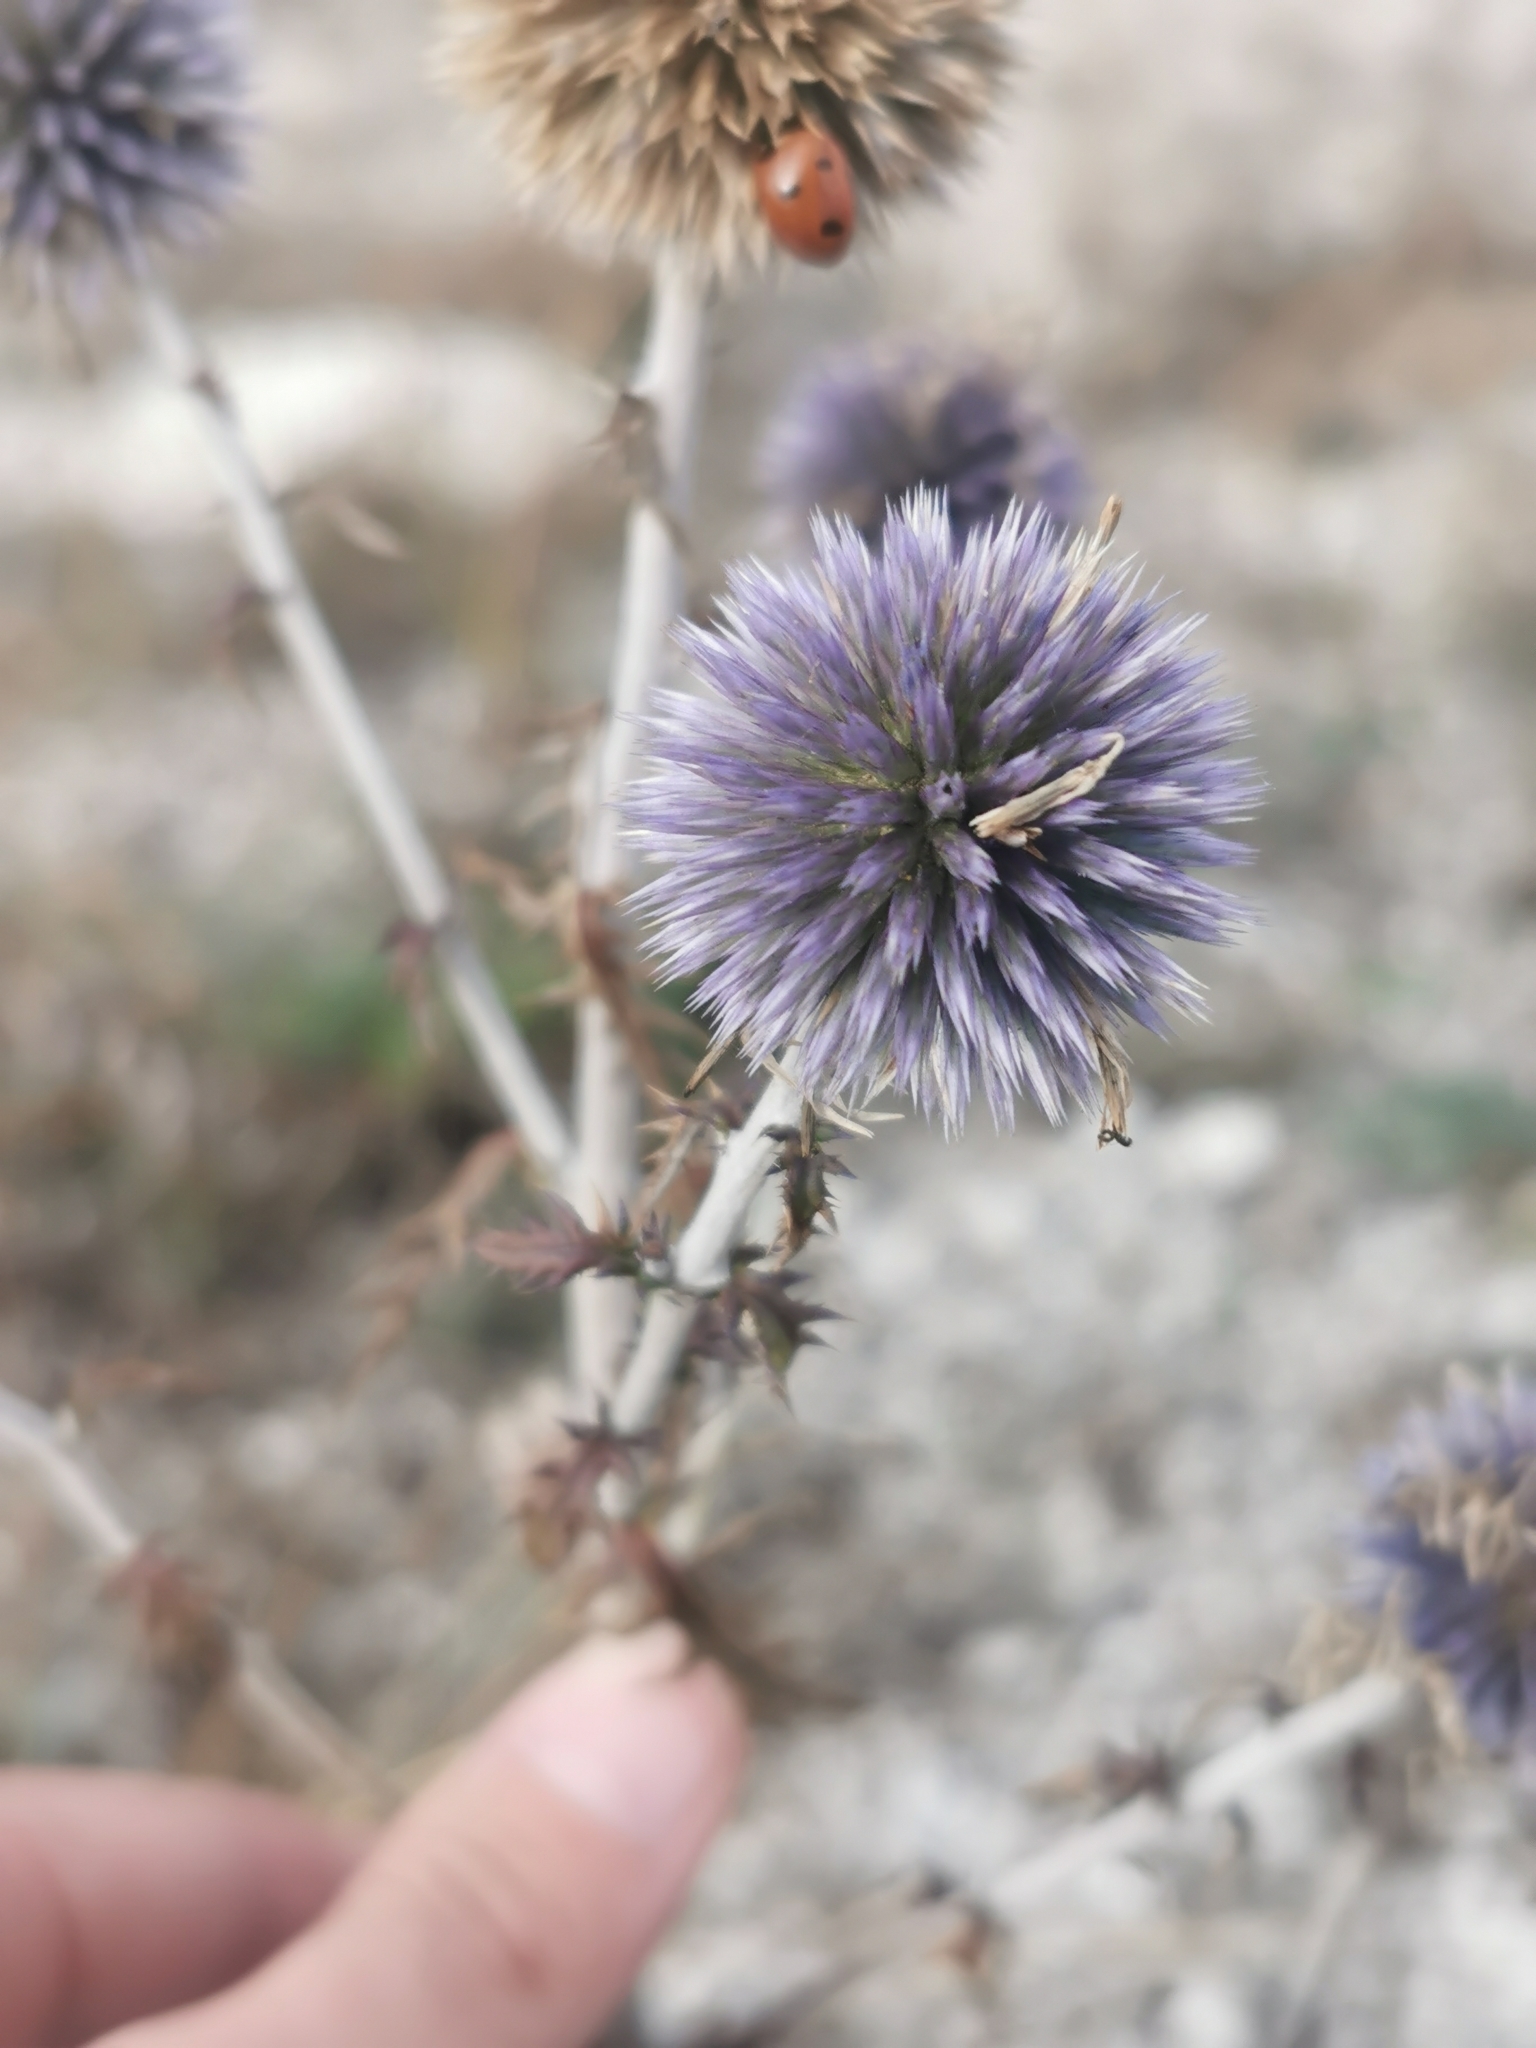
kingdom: Plantae
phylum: Tracheophyta
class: Magnoliopsida
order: Asterales
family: Asteraceae
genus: Echinops
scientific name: Echinops ritro
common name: Globe thistle
